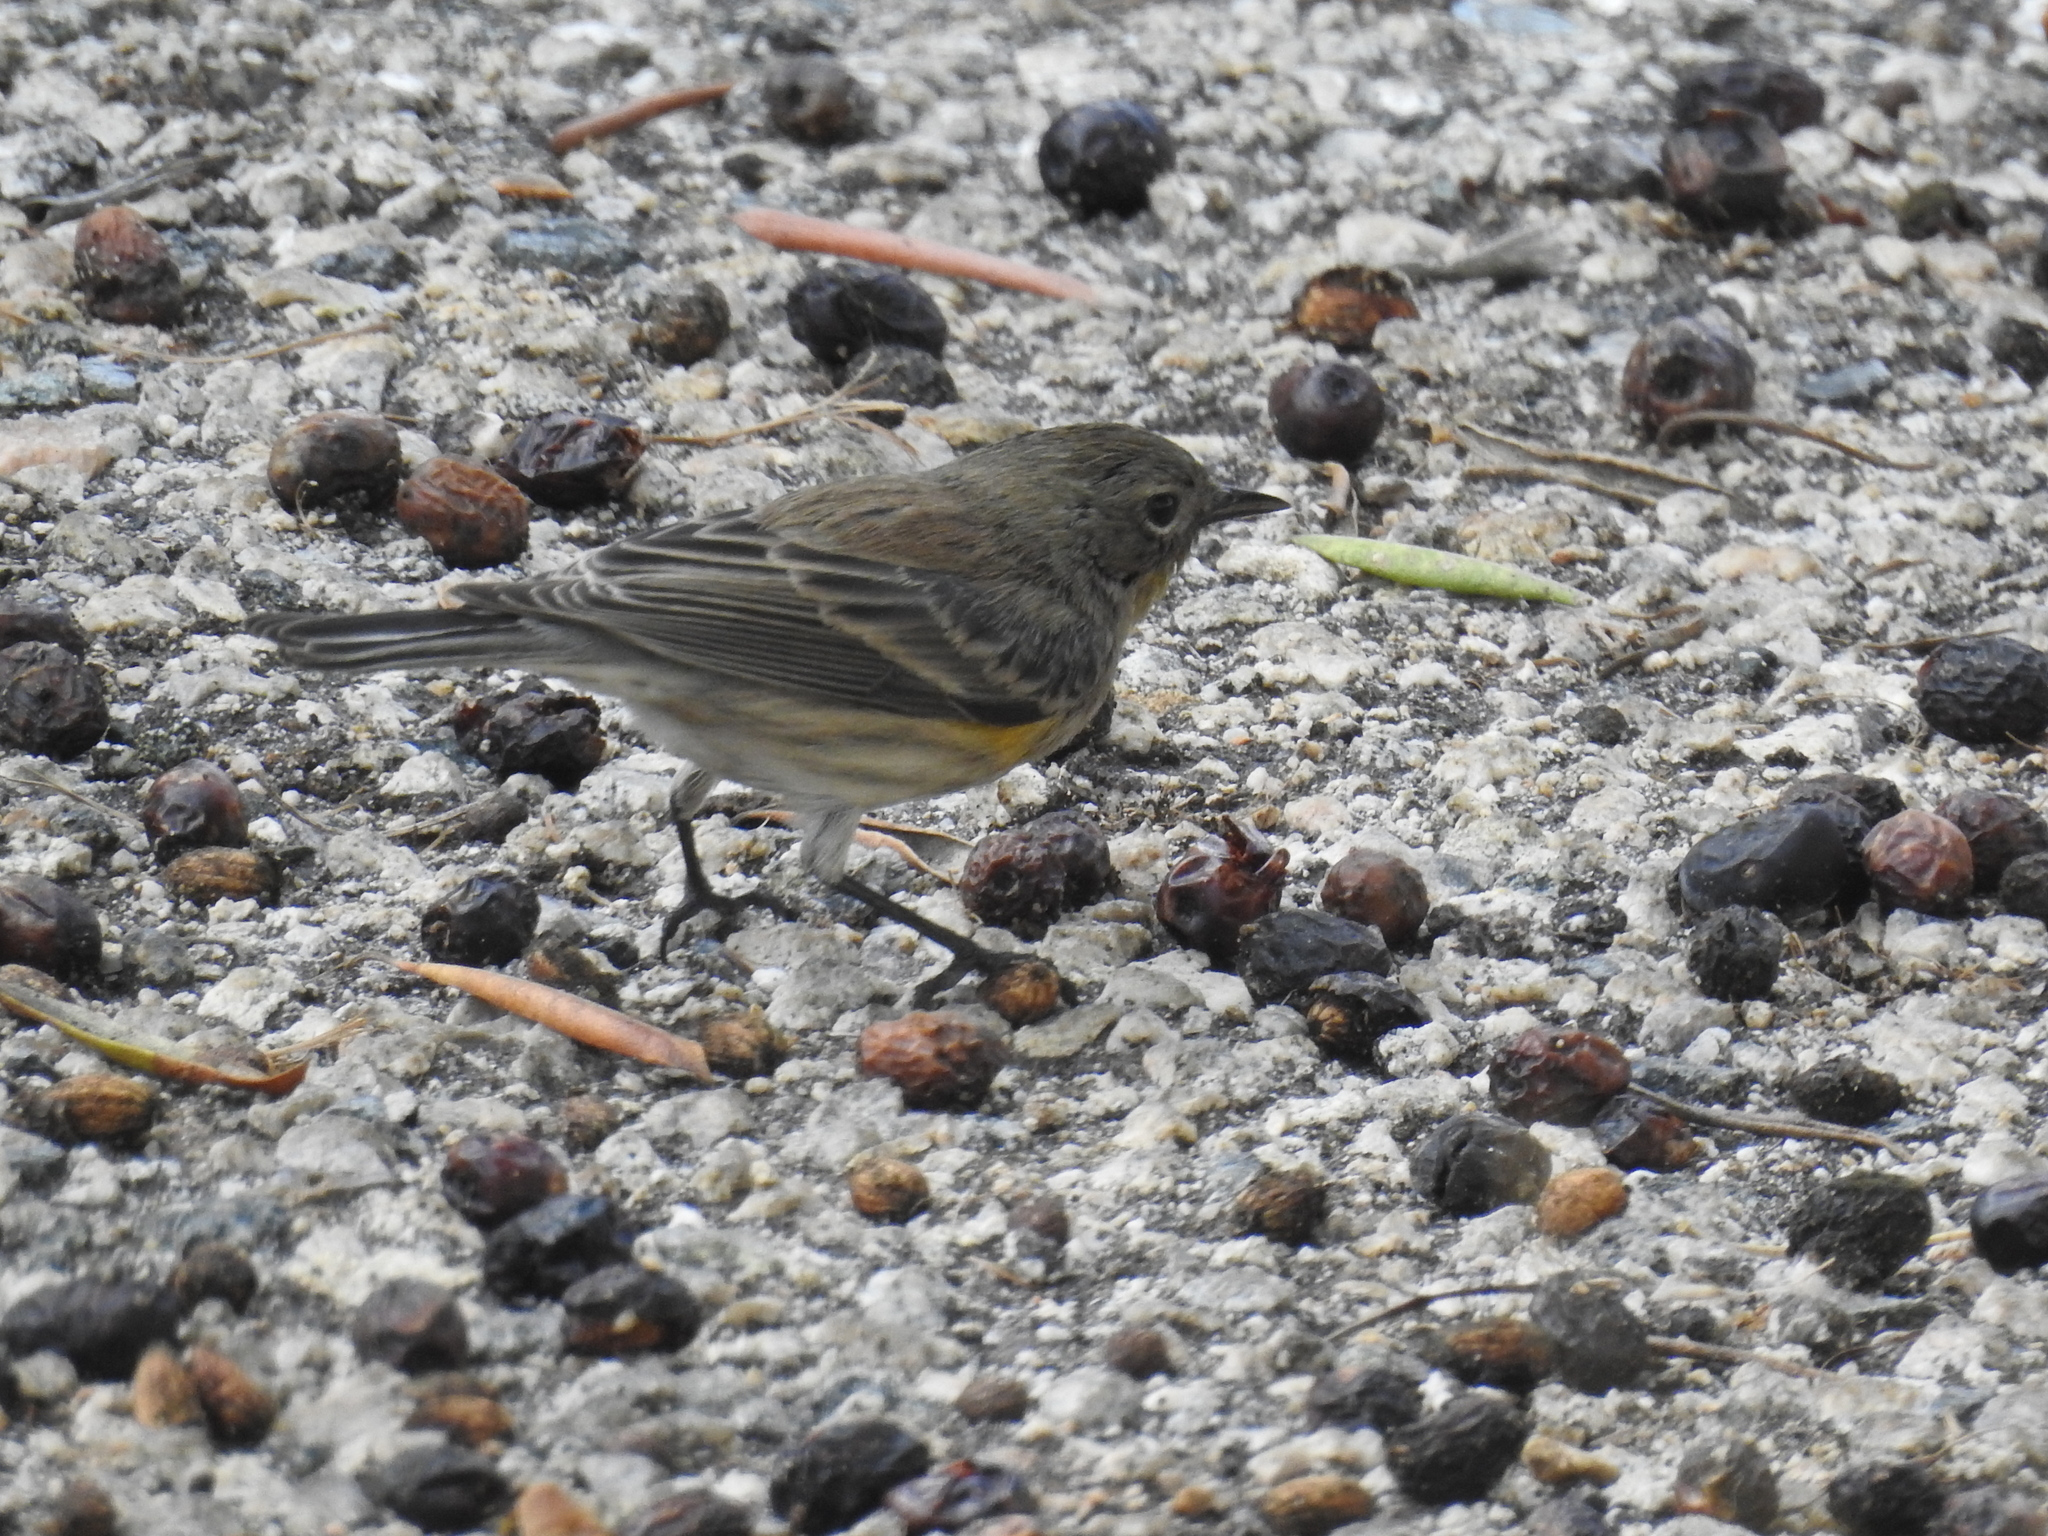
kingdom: Animalia
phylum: Chordata
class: Aves
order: Passeriformes
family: Parulidae
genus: Setophaga
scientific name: Setophaga coronata
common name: Myrtle warbler
